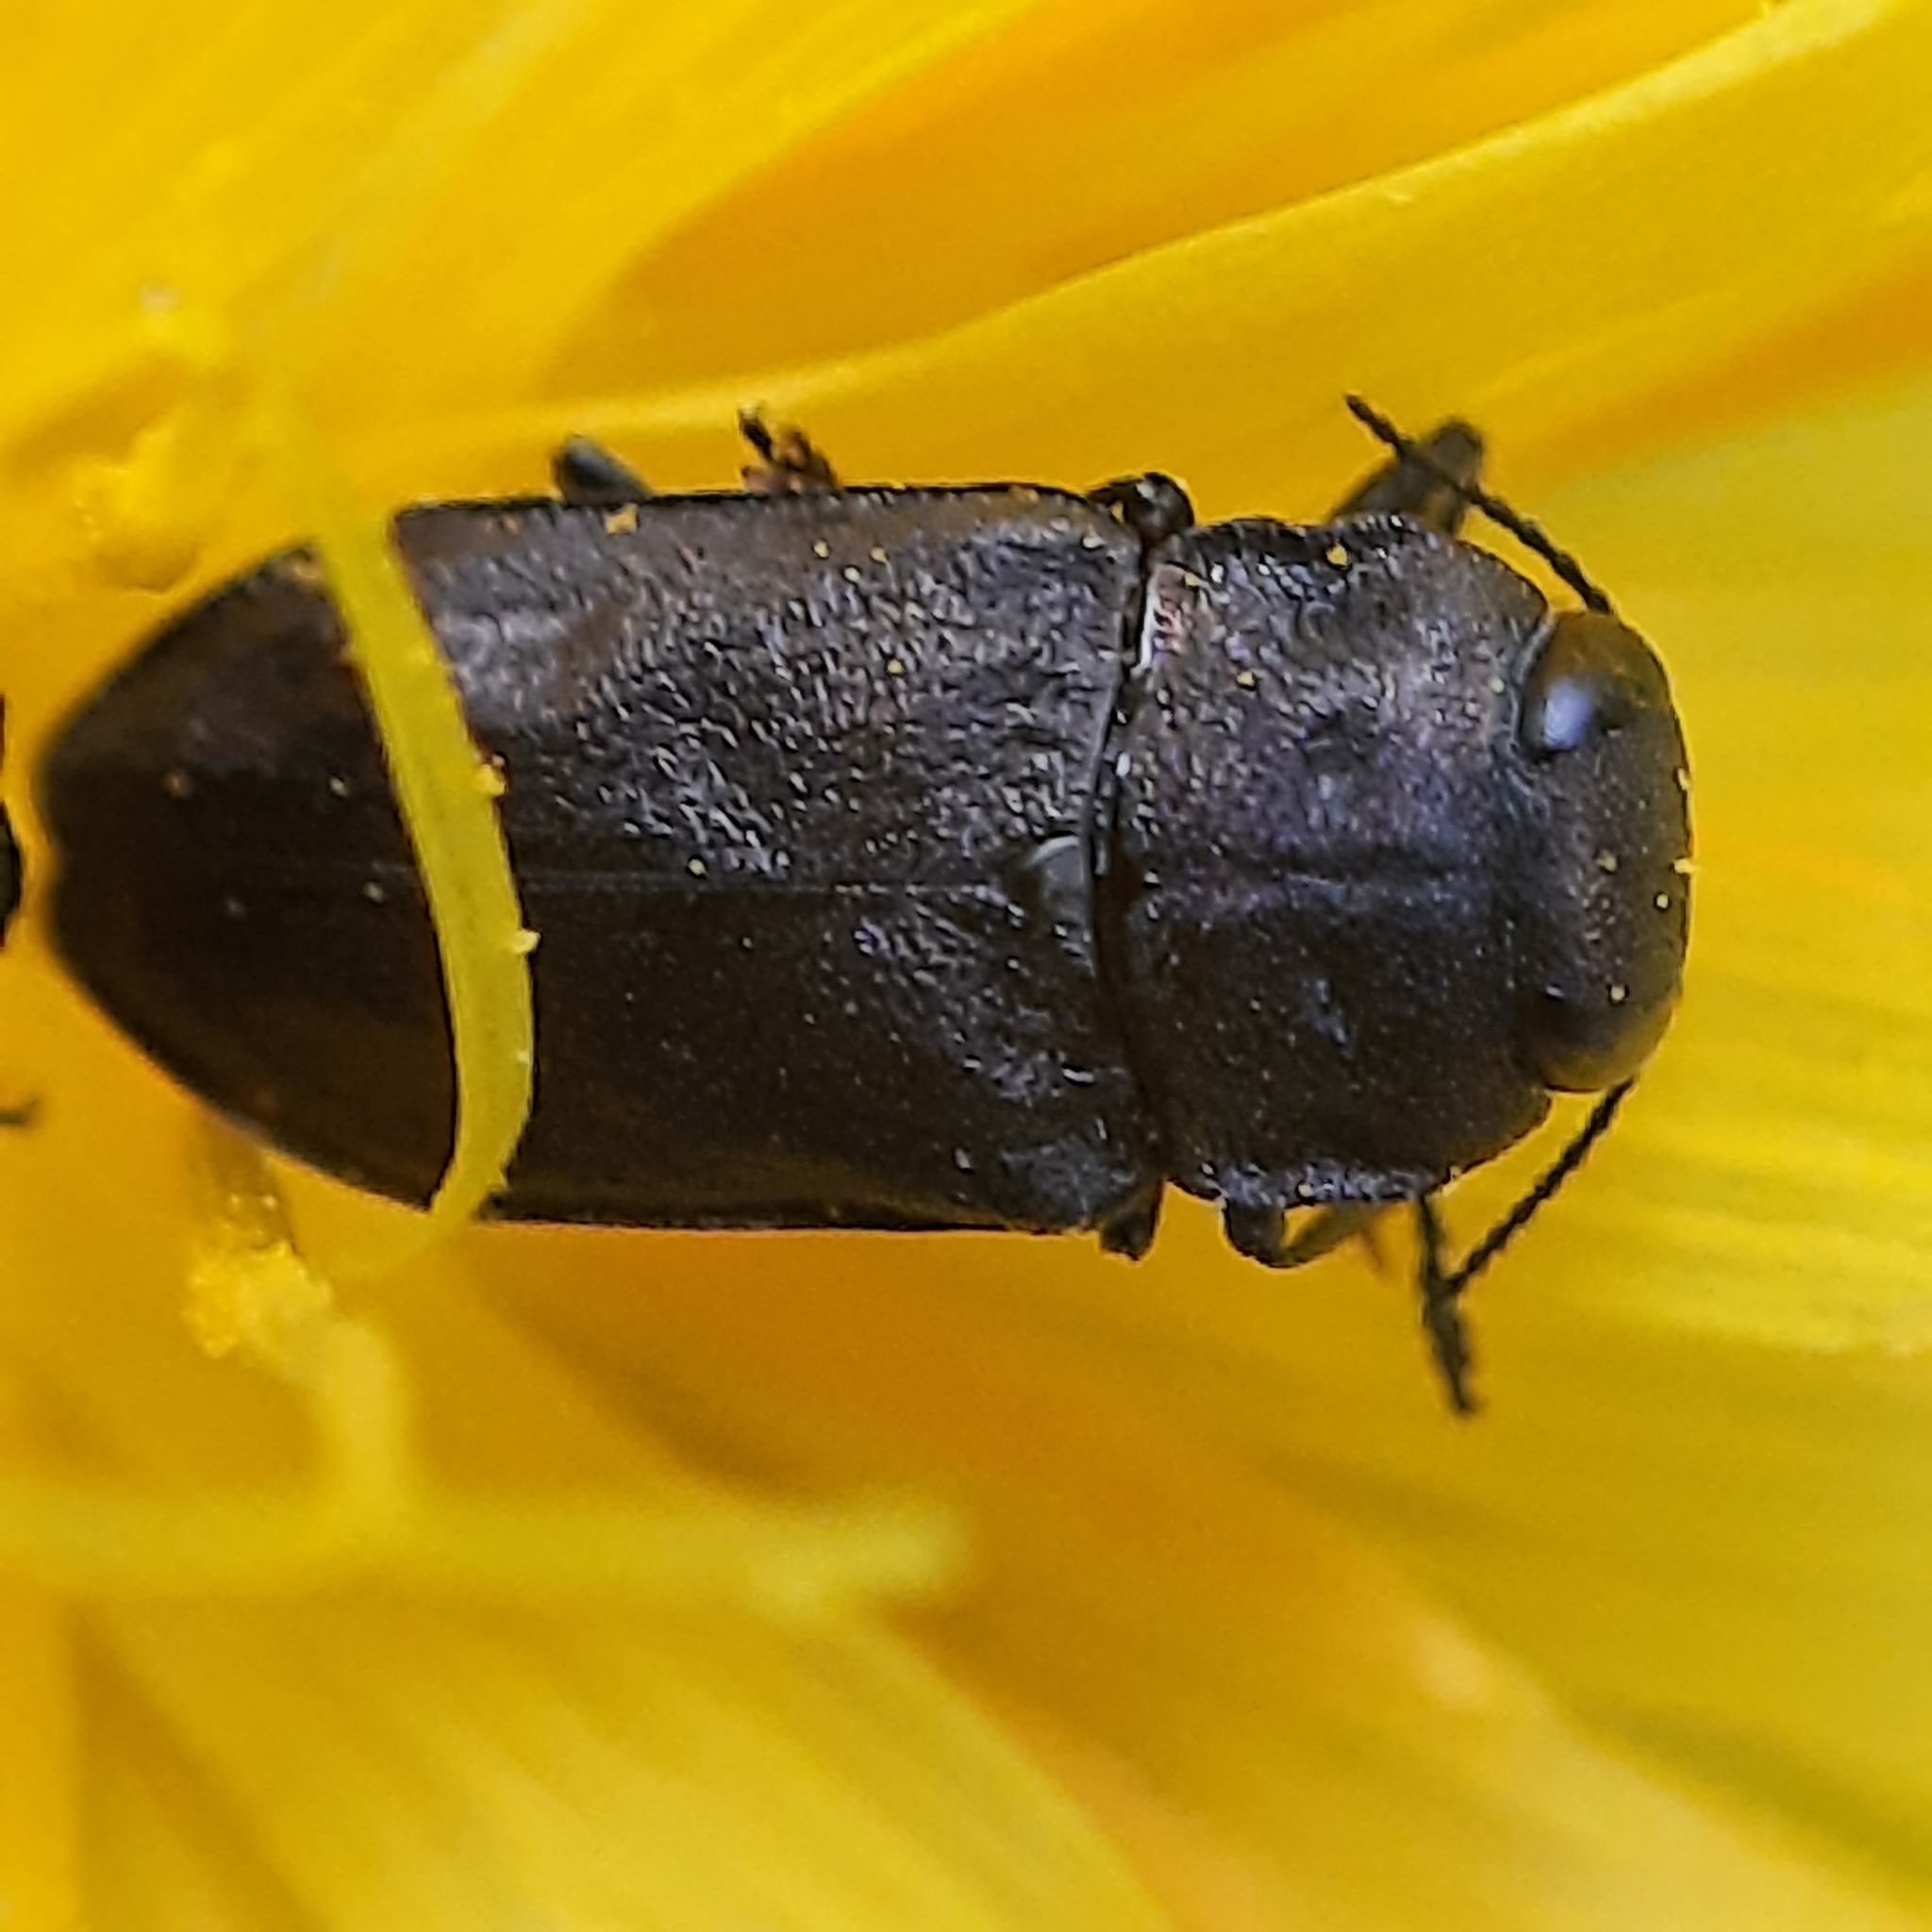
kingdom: Animalia
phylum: Arthropoda
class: Insecta
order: Coleoptera
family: Buprestidae
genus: Anthaxia
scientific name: Anthaxia quadripunctata
